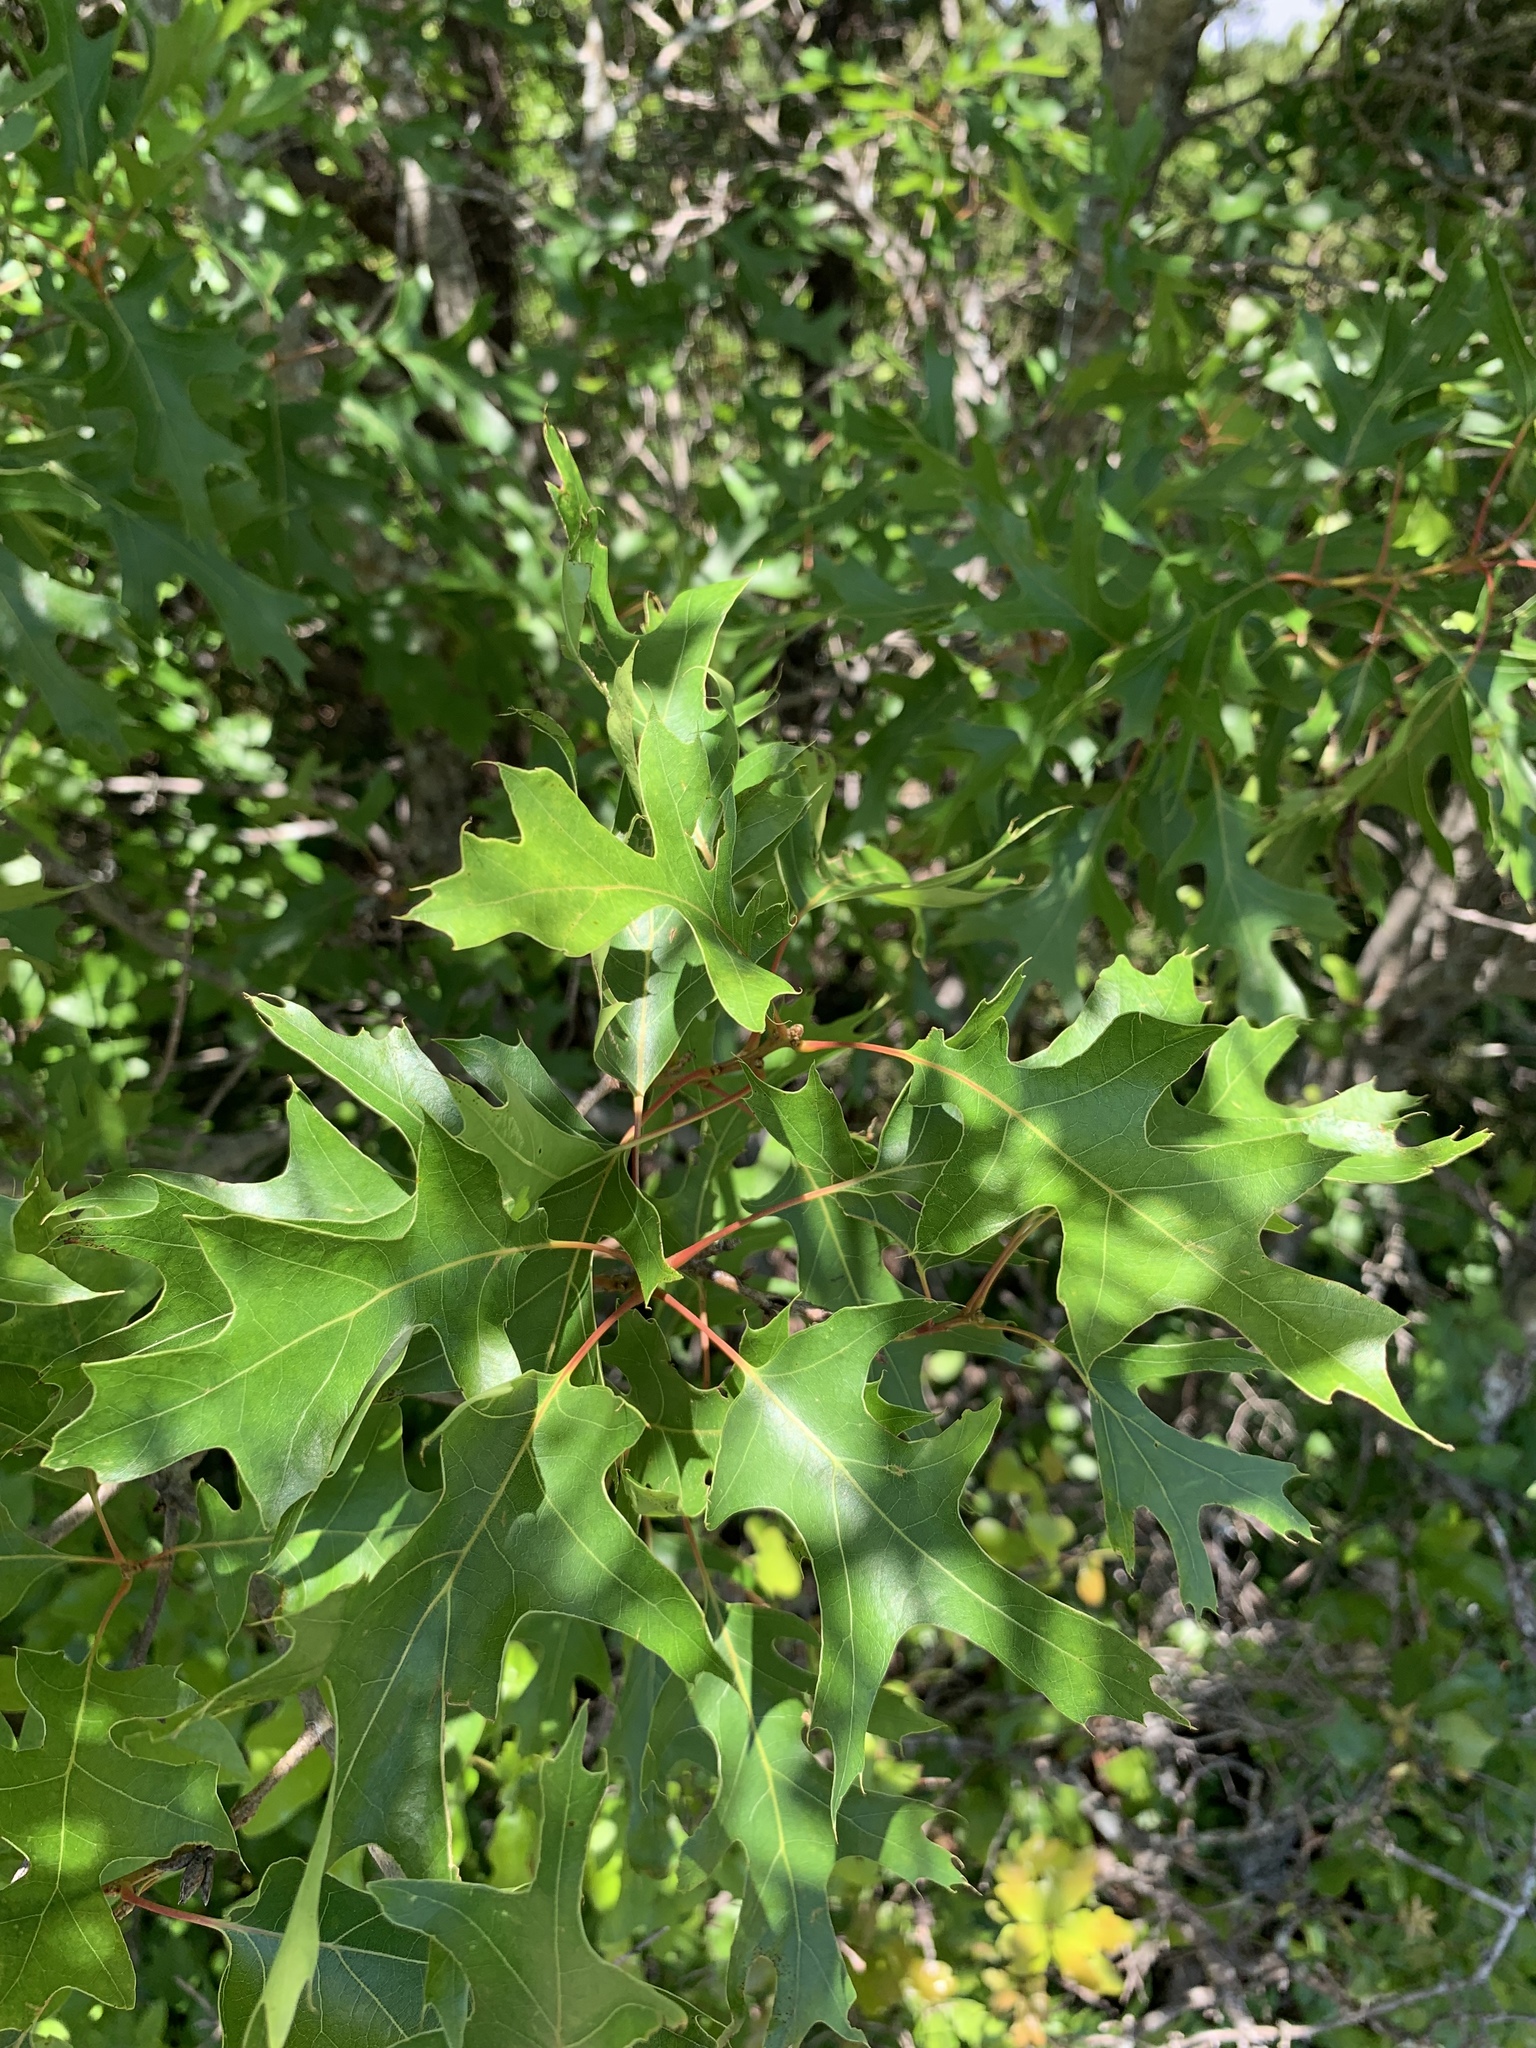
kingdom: Plantae
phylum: Tracheophyta
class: Magnoliopsida
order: Fagales
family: Fagaceae
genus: Quercus
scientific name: Quercus buckleyi
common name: Buckley oak
